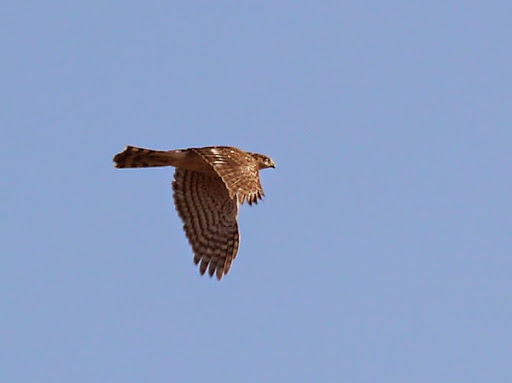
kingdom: Animalia
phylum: Chordata
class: Aves
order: Accipitriformes
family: Accipitridae
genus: Accipiter
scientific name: Accipiter cooperii
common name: Cooper's hawk
